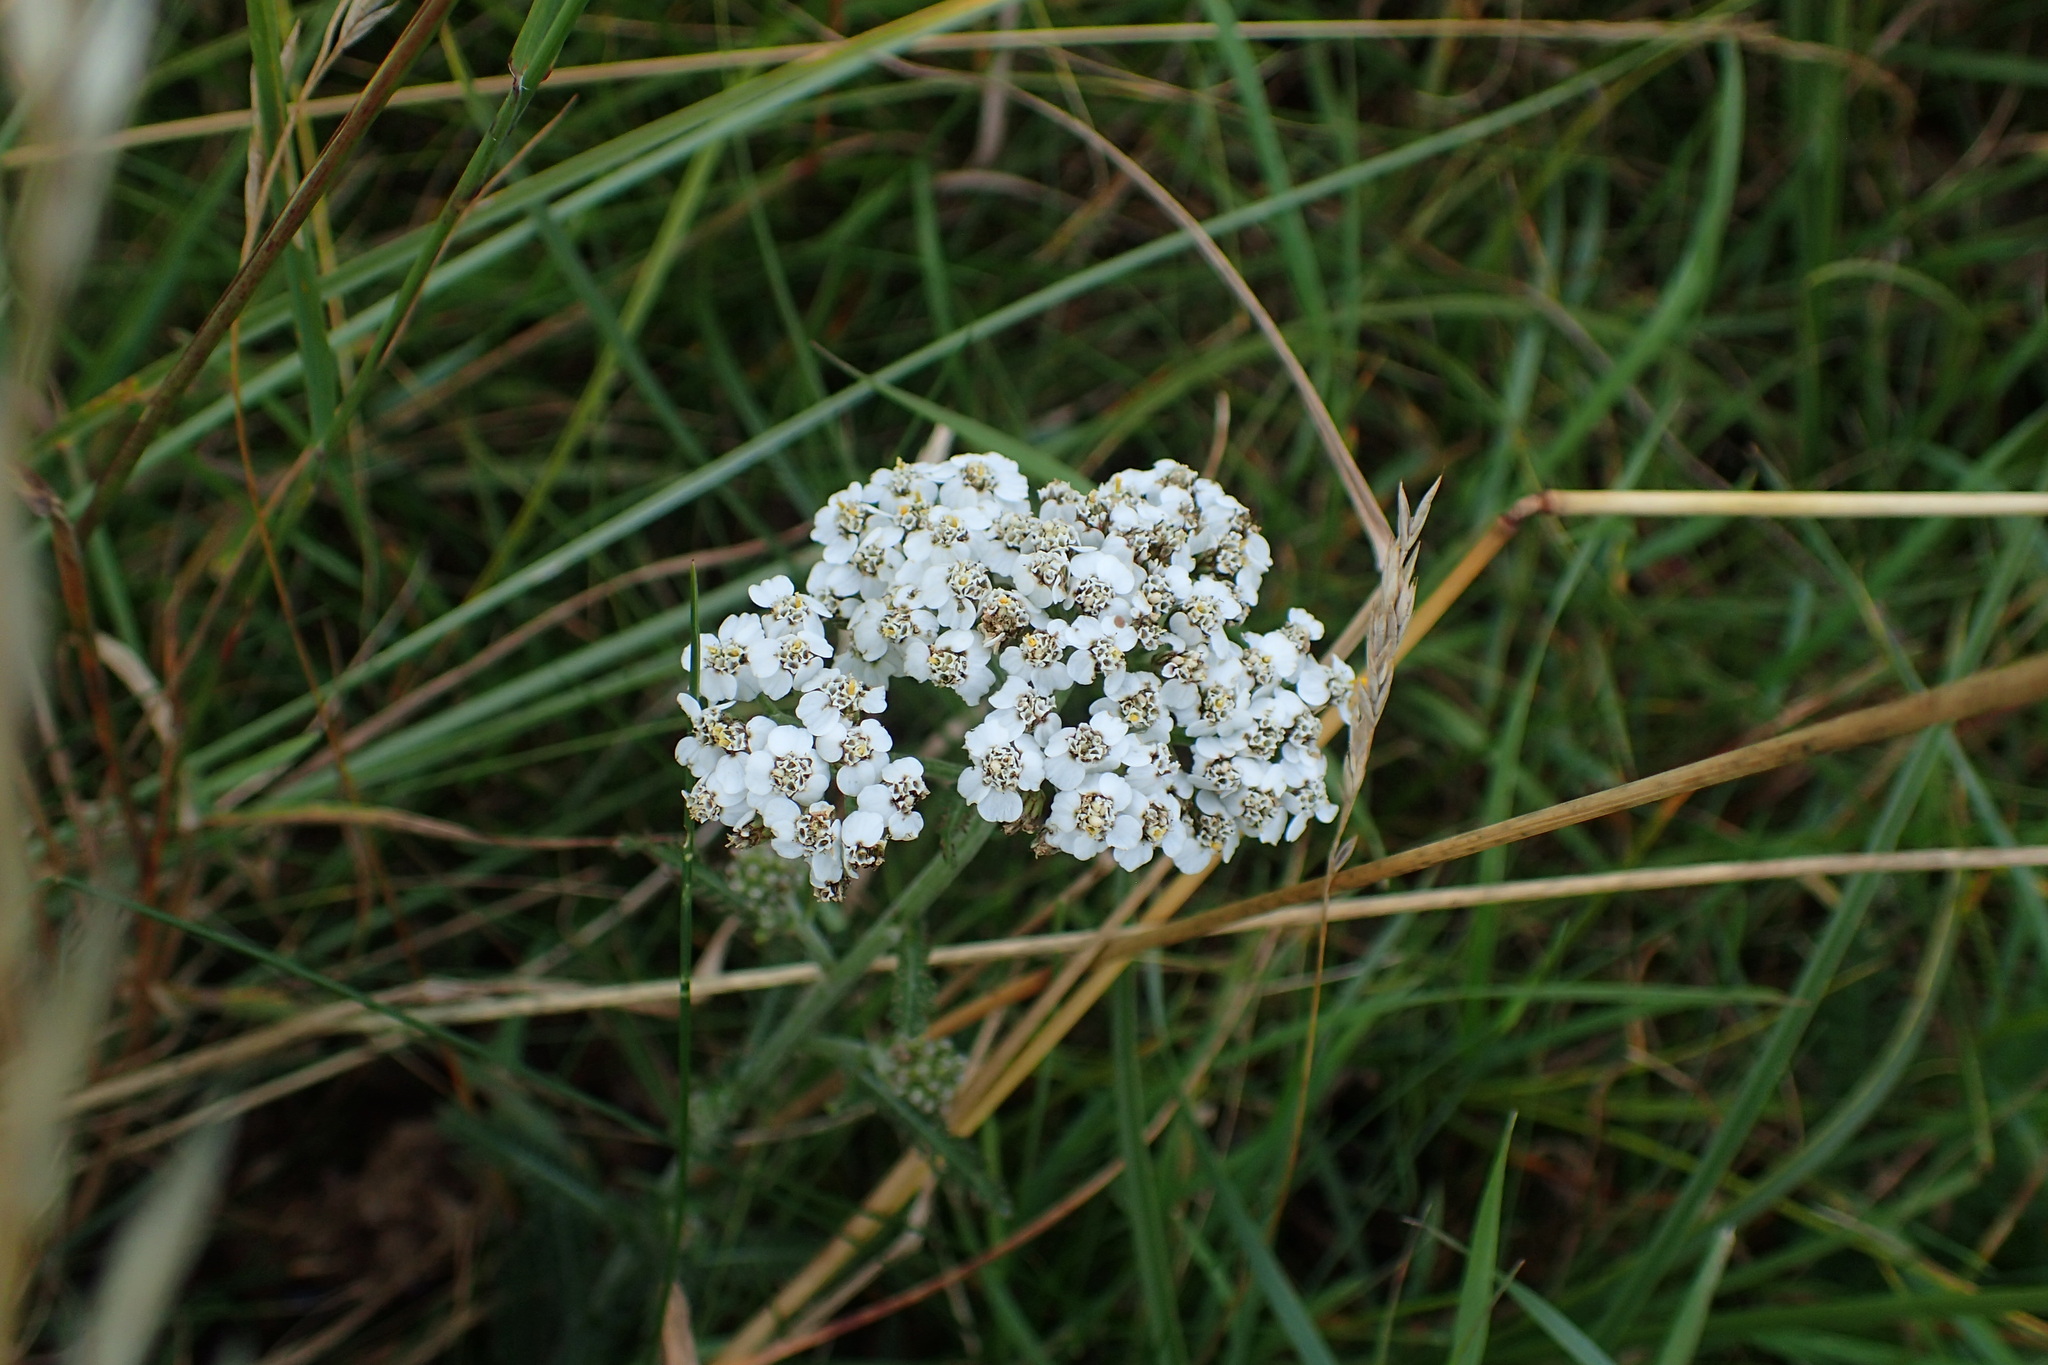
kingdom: Plantae
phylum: Tracheophyta
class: Magnoliopsida
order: Asterales
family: Asteraceae
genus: Achillea
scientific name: Achillea millefolium
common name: Yarrow
